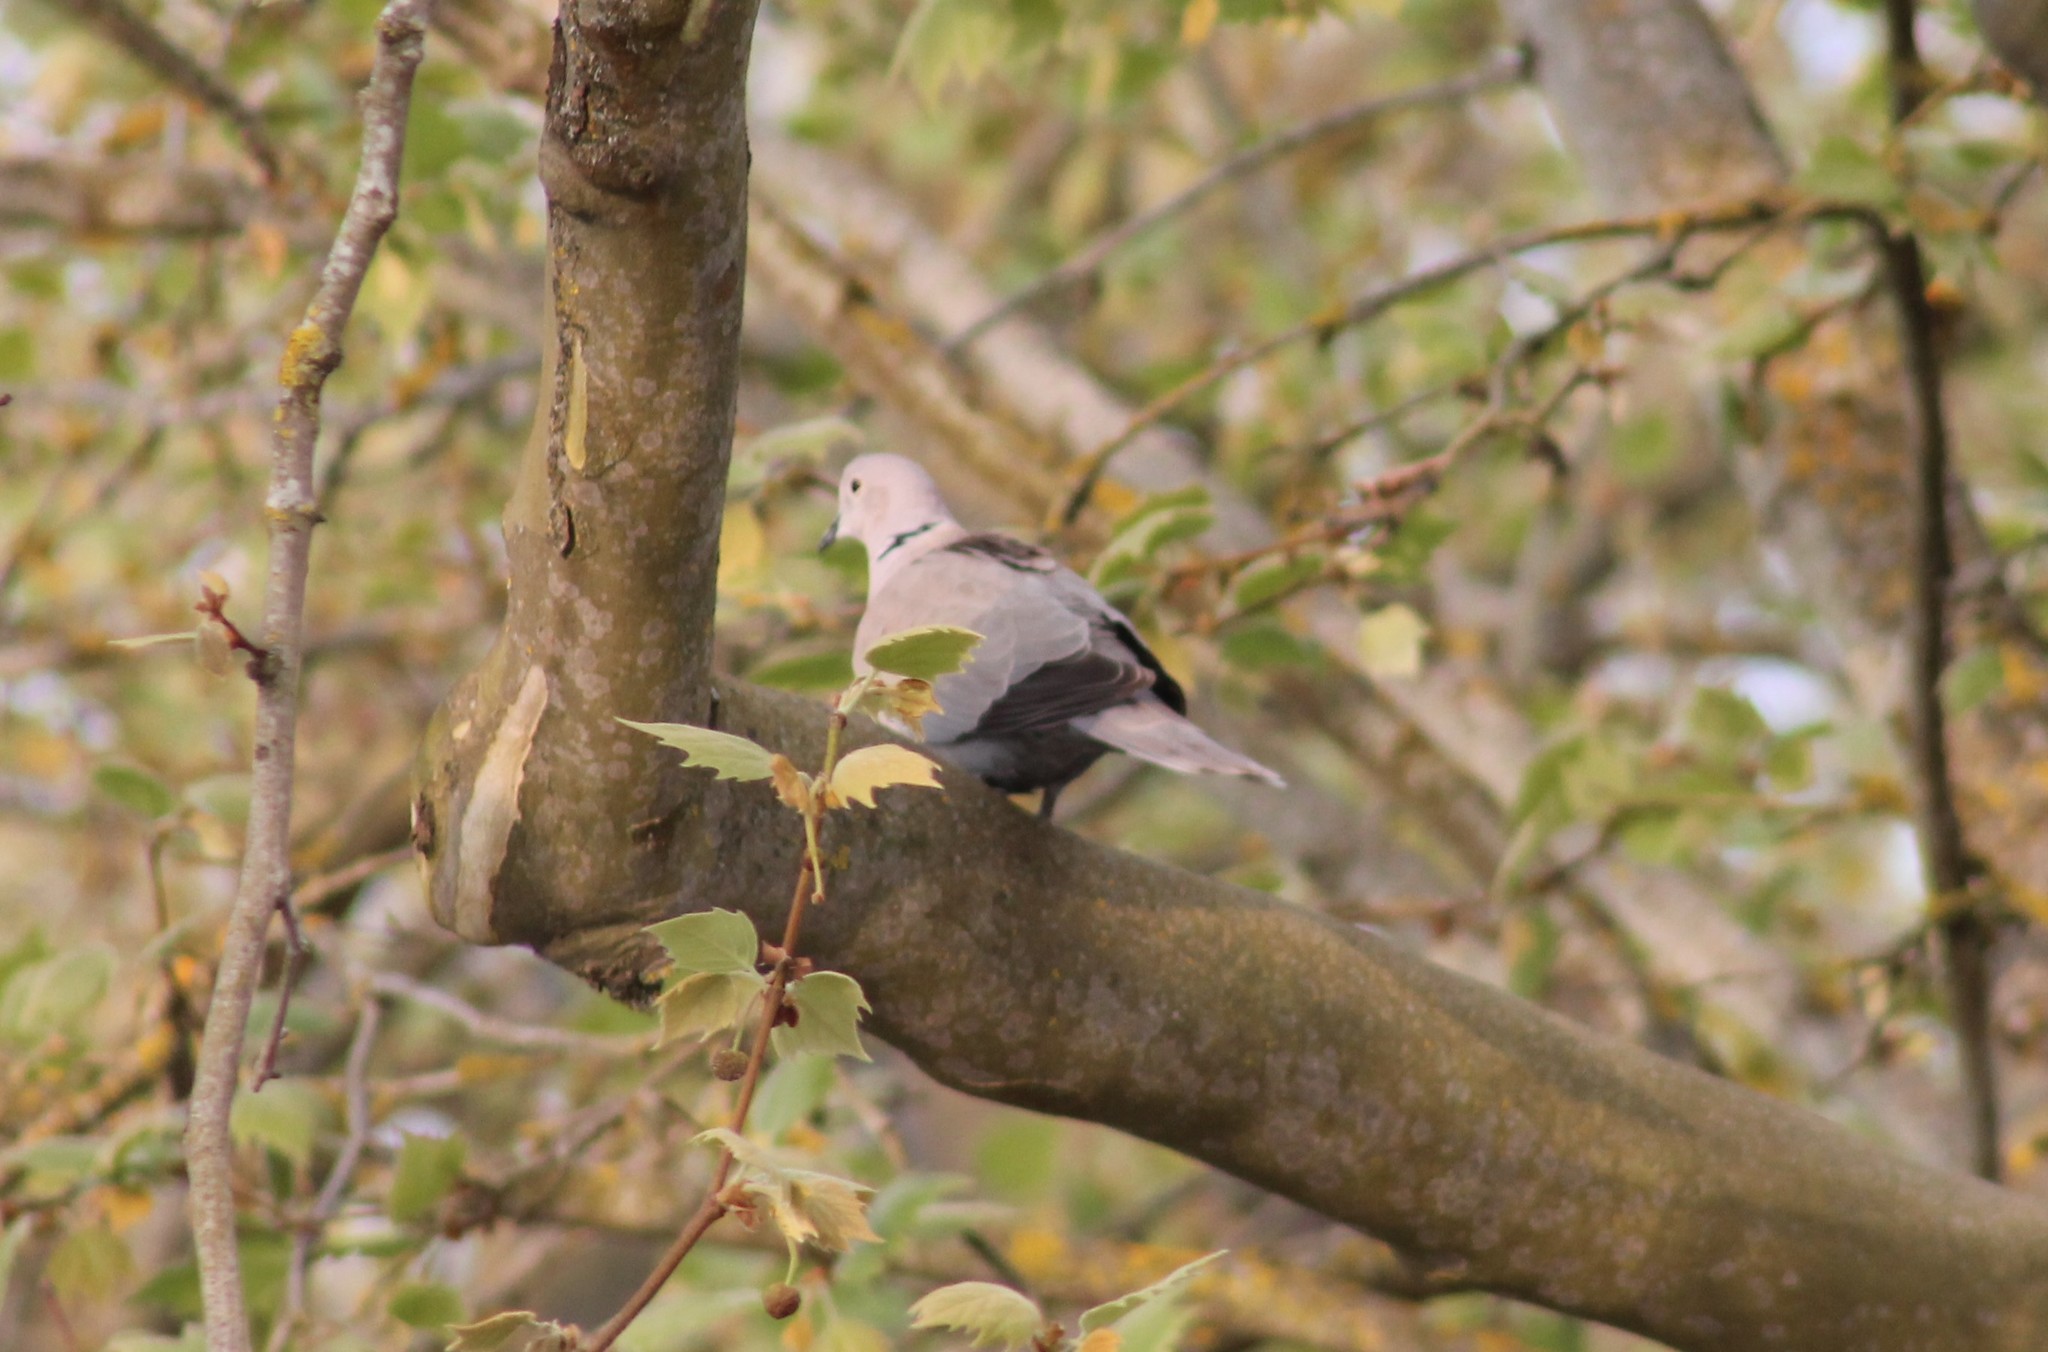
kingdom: Animalia
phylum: Chordata
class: Aves
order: Columbiformes
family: Columbidae
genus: Streptopelia
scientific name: Streptopelia decaocto
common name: Eurasian collared dove
